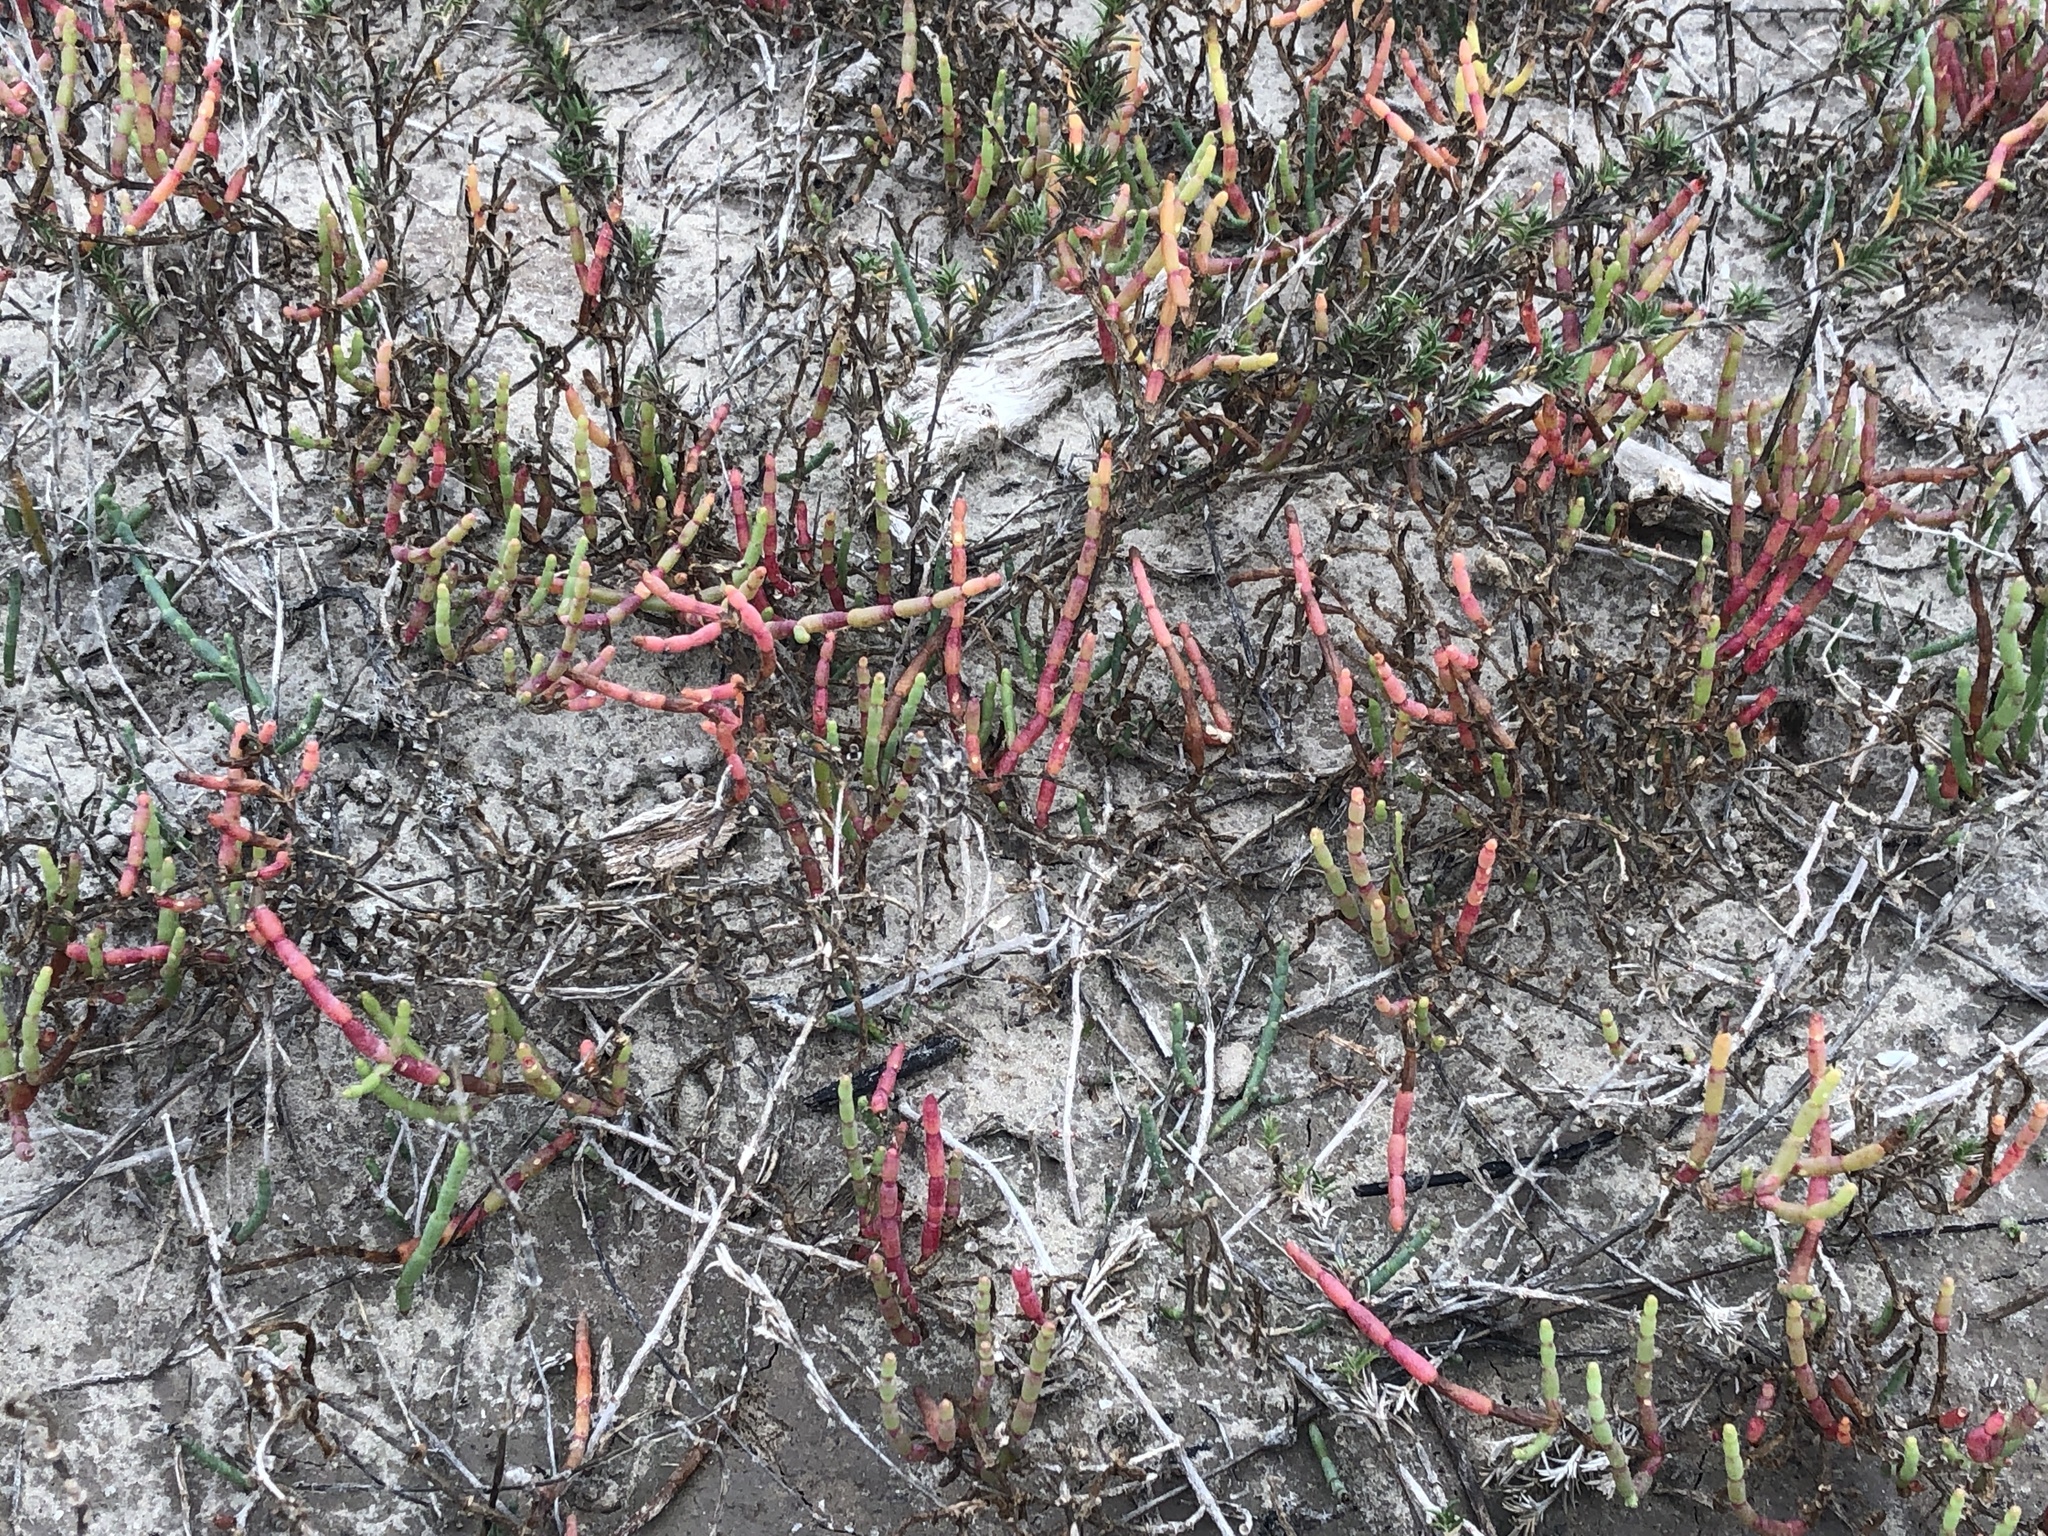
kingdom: Plantae
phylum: Tracheophyta
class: Magnoliopsida
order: Caryophyllales
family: Amaranthaceae
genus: Salicornia
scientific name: Salicornia virginica
